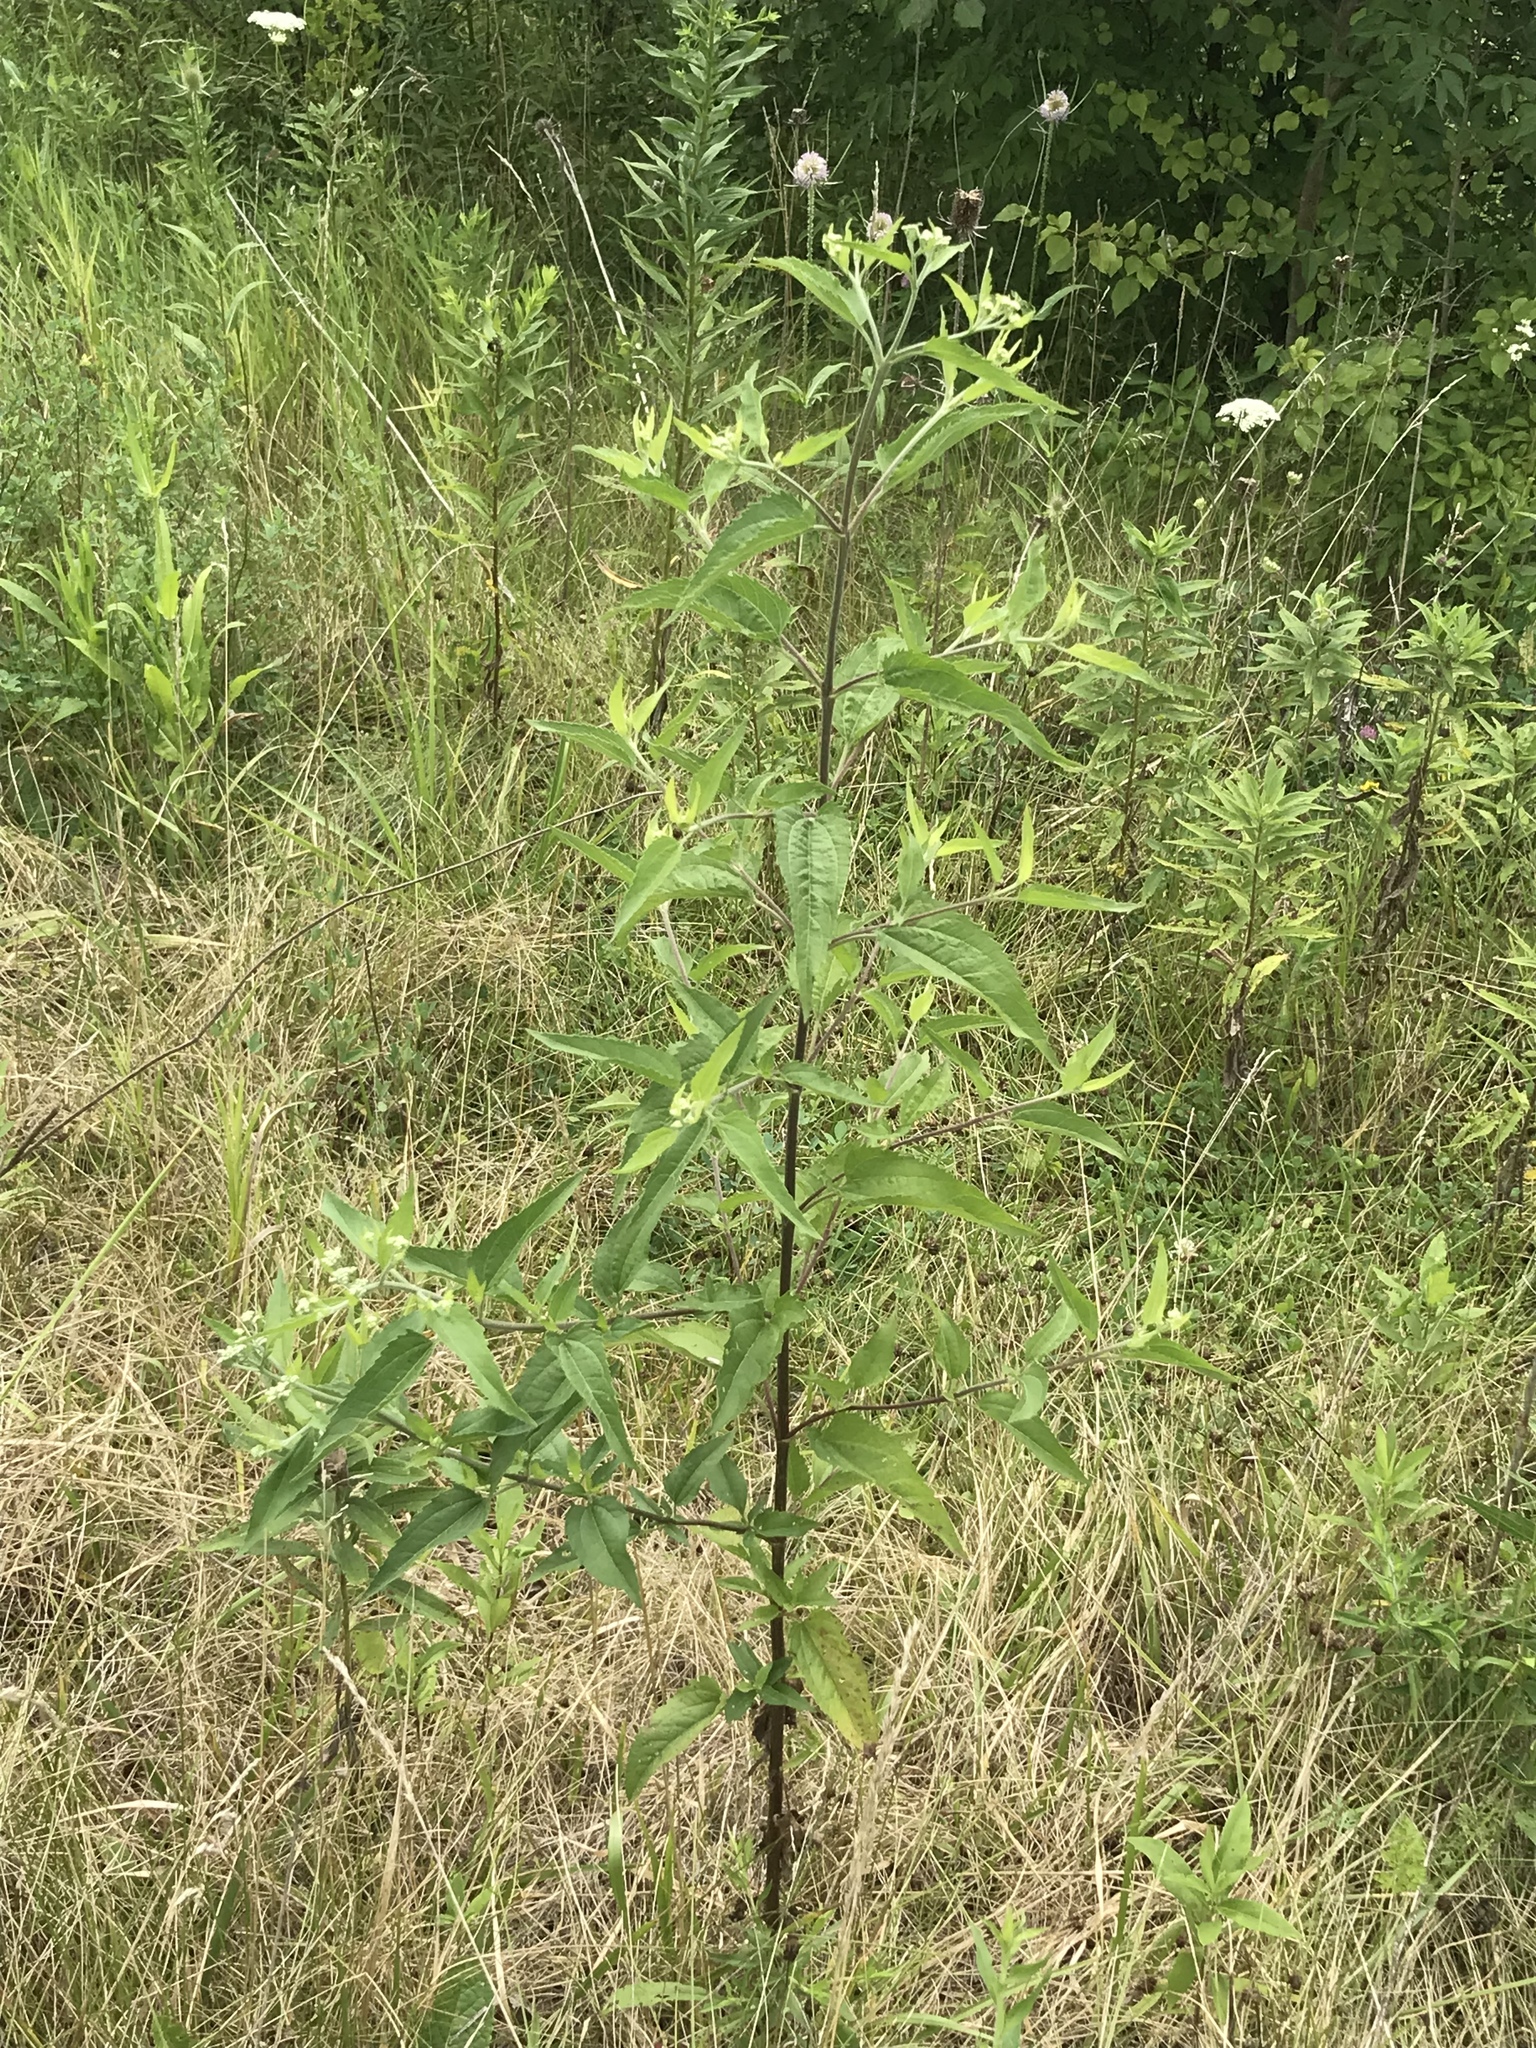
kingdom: Plantae
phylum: Tracheophyta
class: Magnoliopsida
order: Asterales
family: Asteraceae
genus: Eupatorium
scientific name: Eupatorium serotinum
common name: Late boneset
